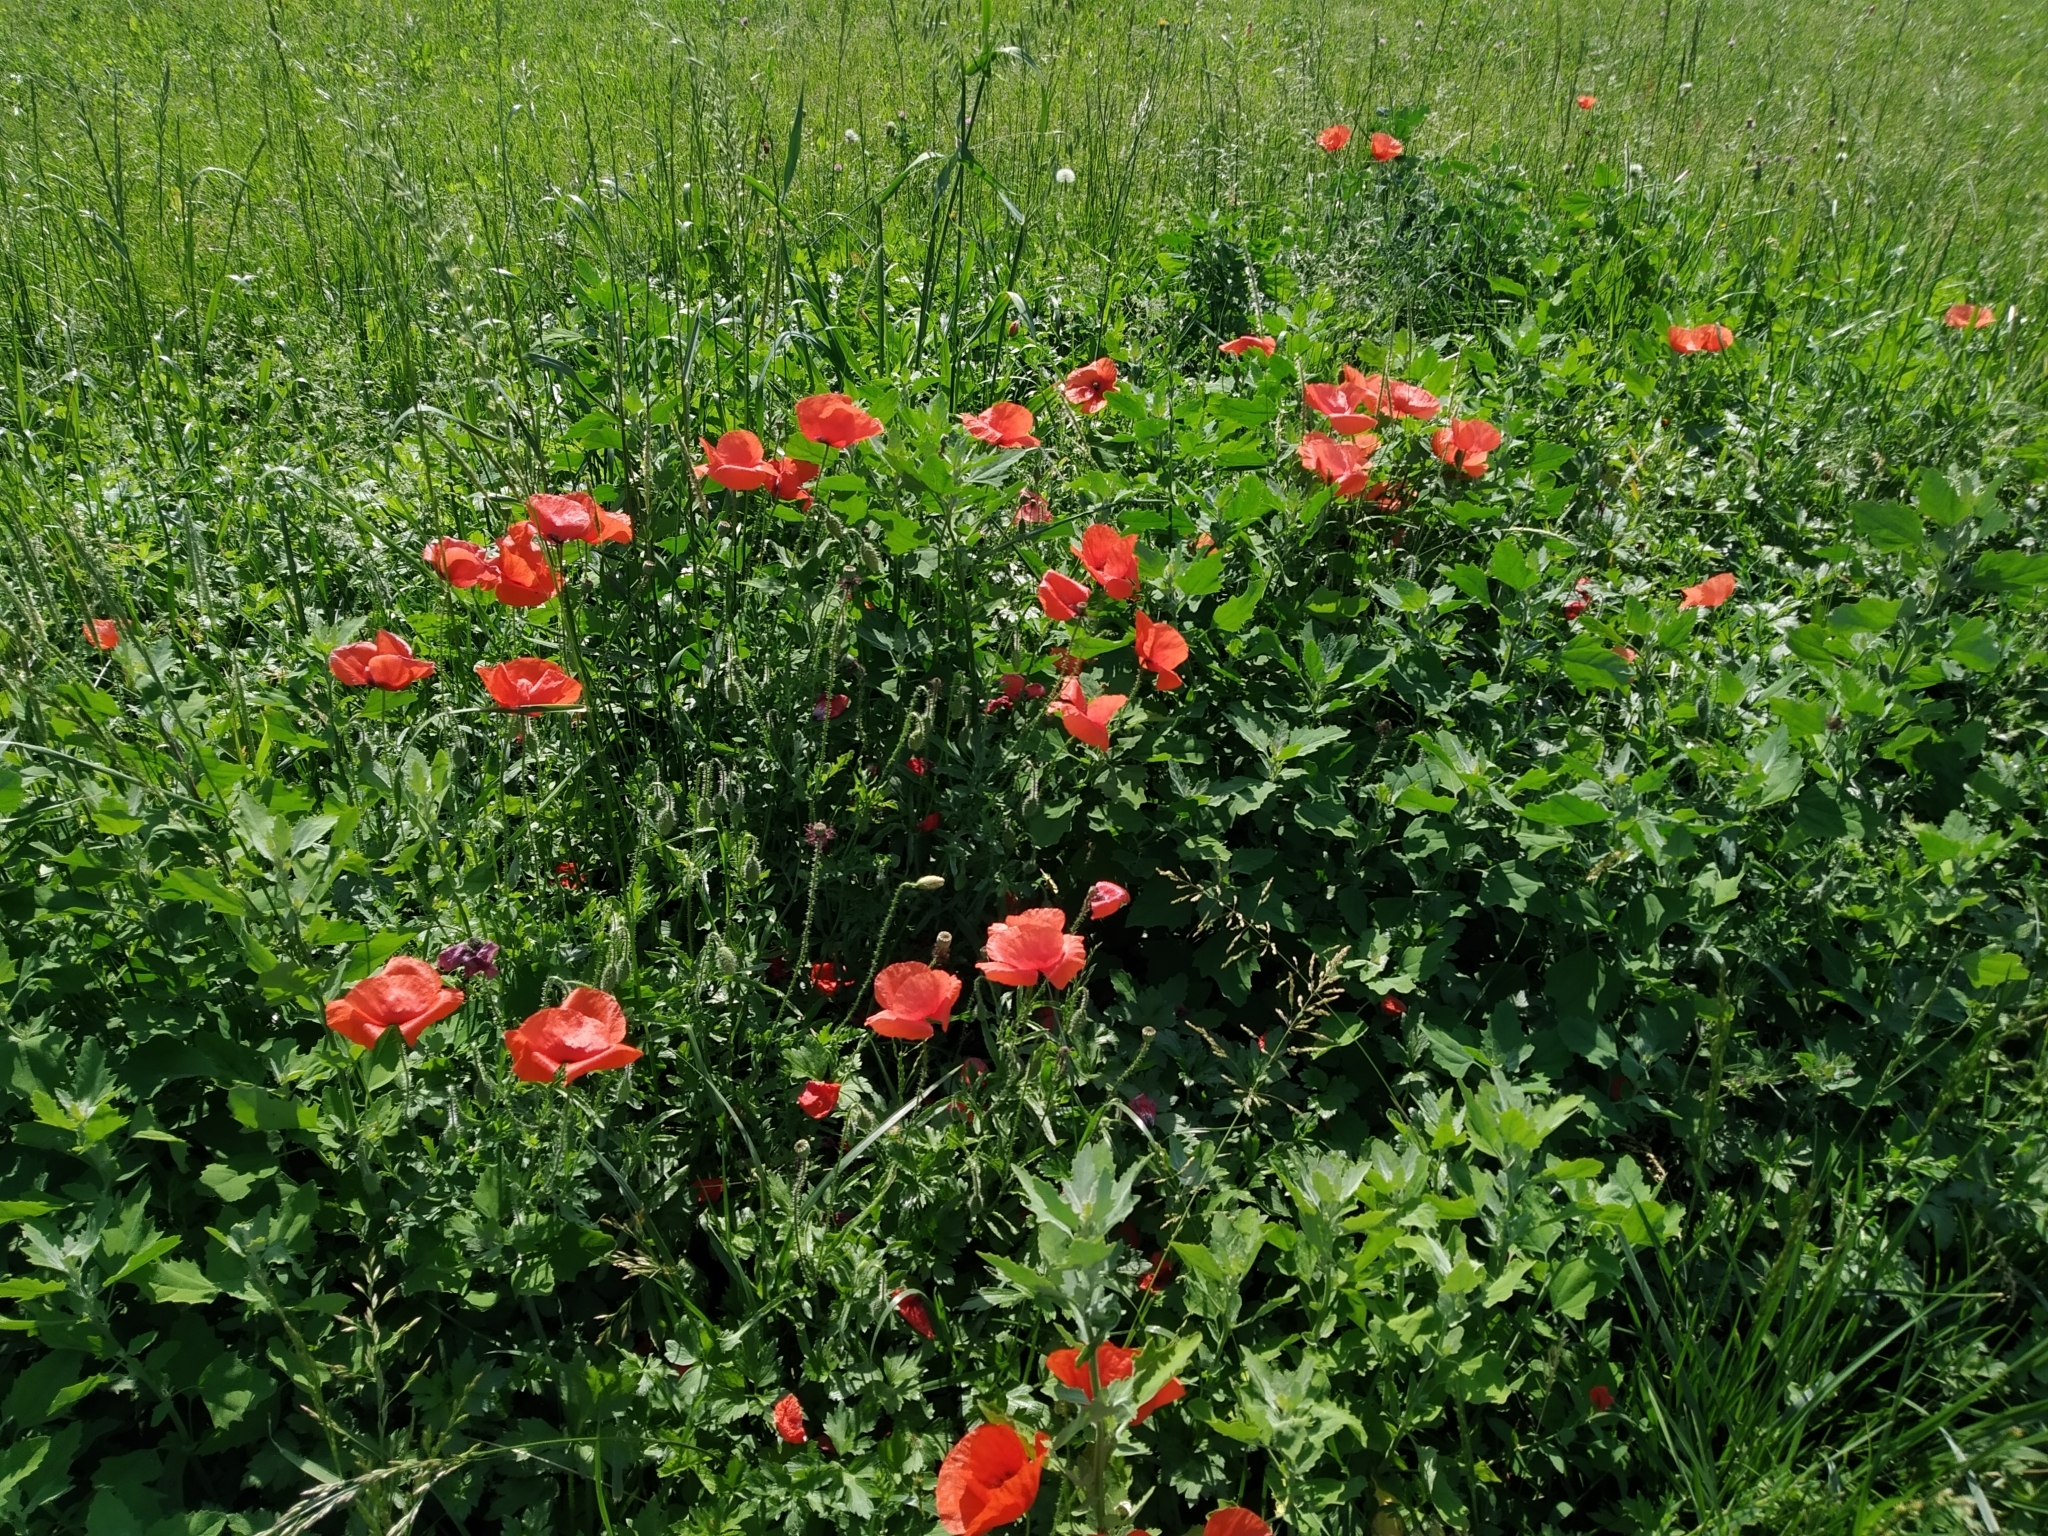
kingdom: Plantae
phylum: Tracheophyta
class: Magnoliopsida
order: Ranunculales
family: Papaveraceae
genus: Papaver
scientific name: Papaver rhoeas
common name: Corn poppy
